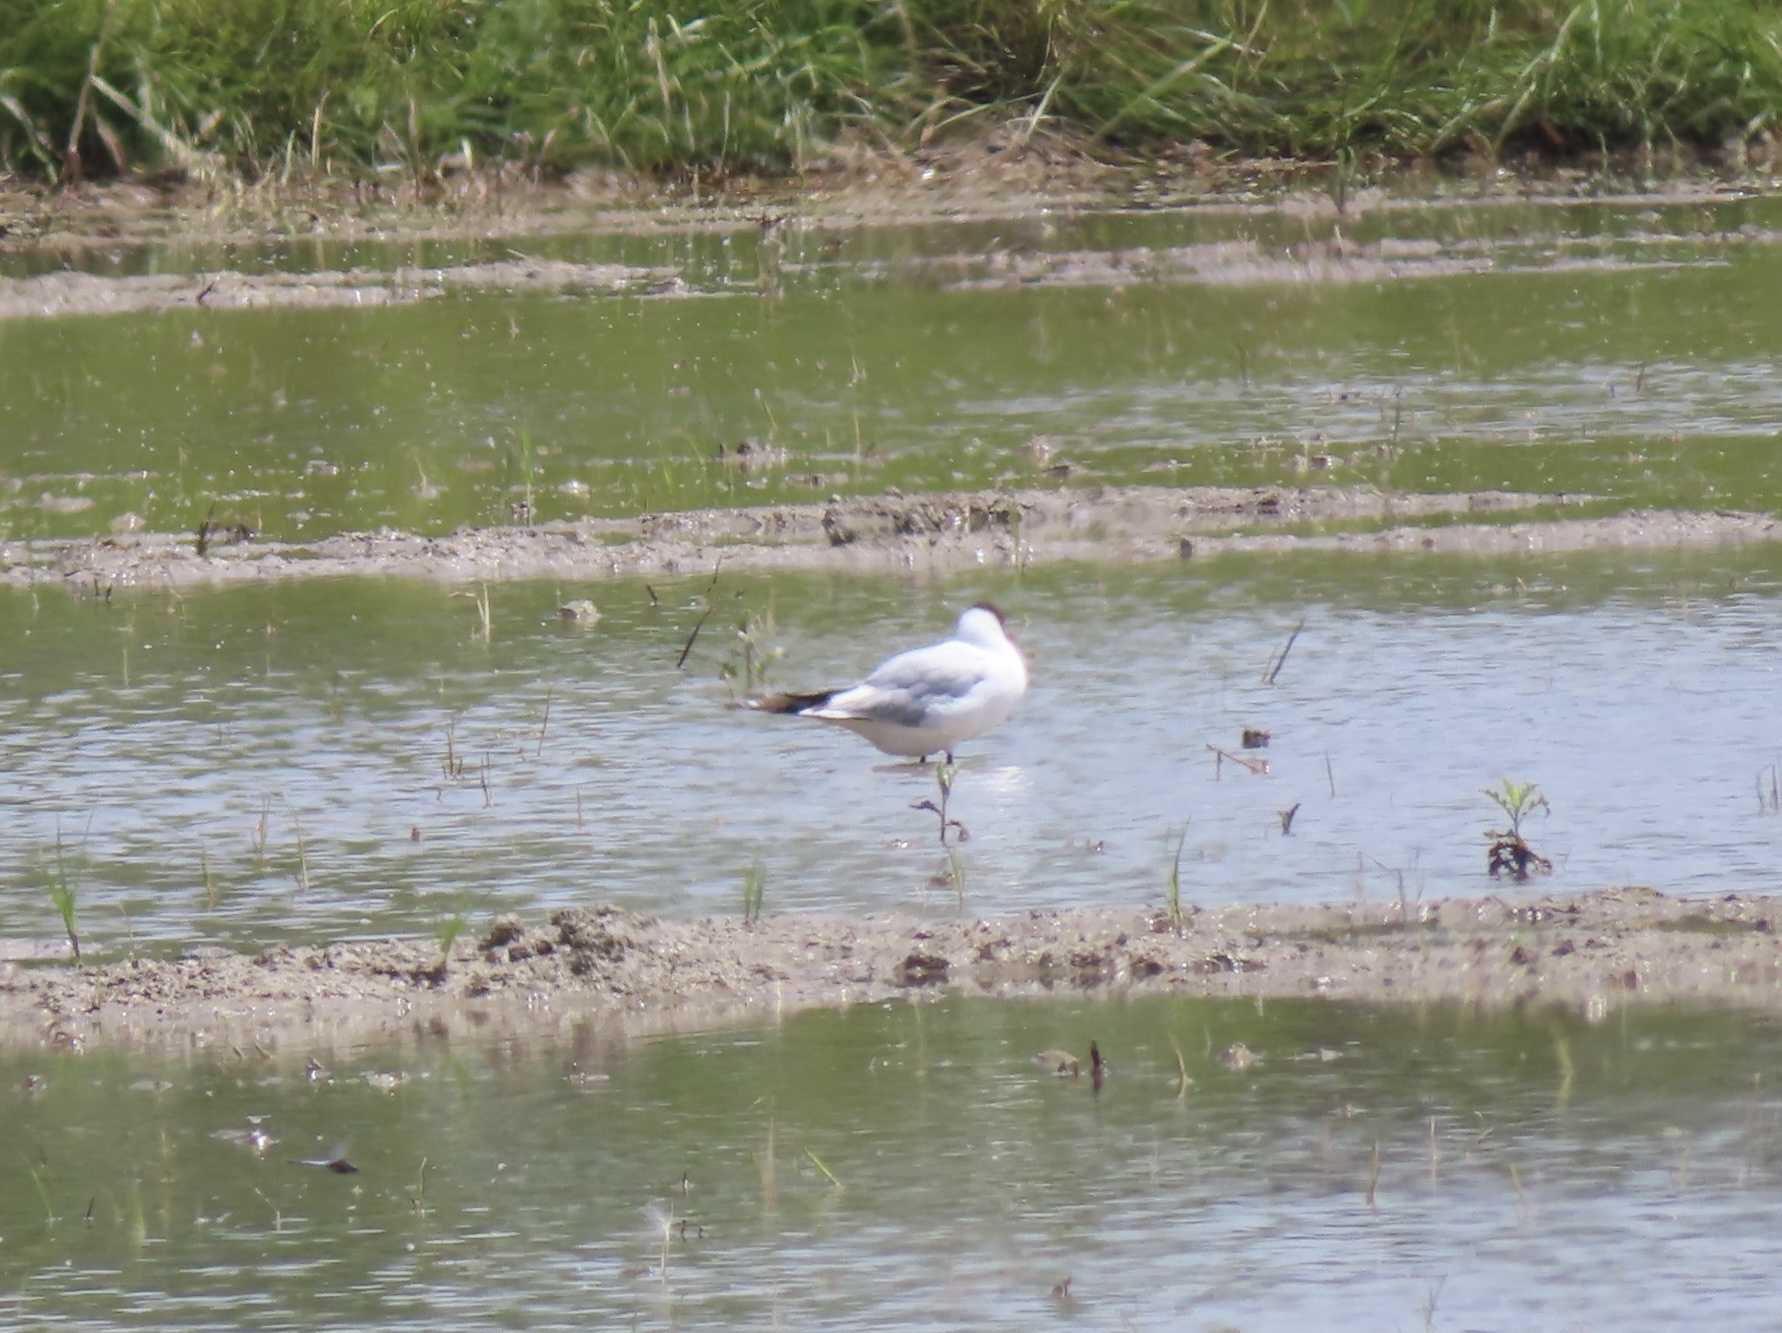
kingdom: Animalia
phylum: Chordata
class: Aves
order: Charadriiformes
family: Laridae
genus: Chroicocephalus
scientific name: Chroicocephalus ridibundus
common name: Black-headed gull
